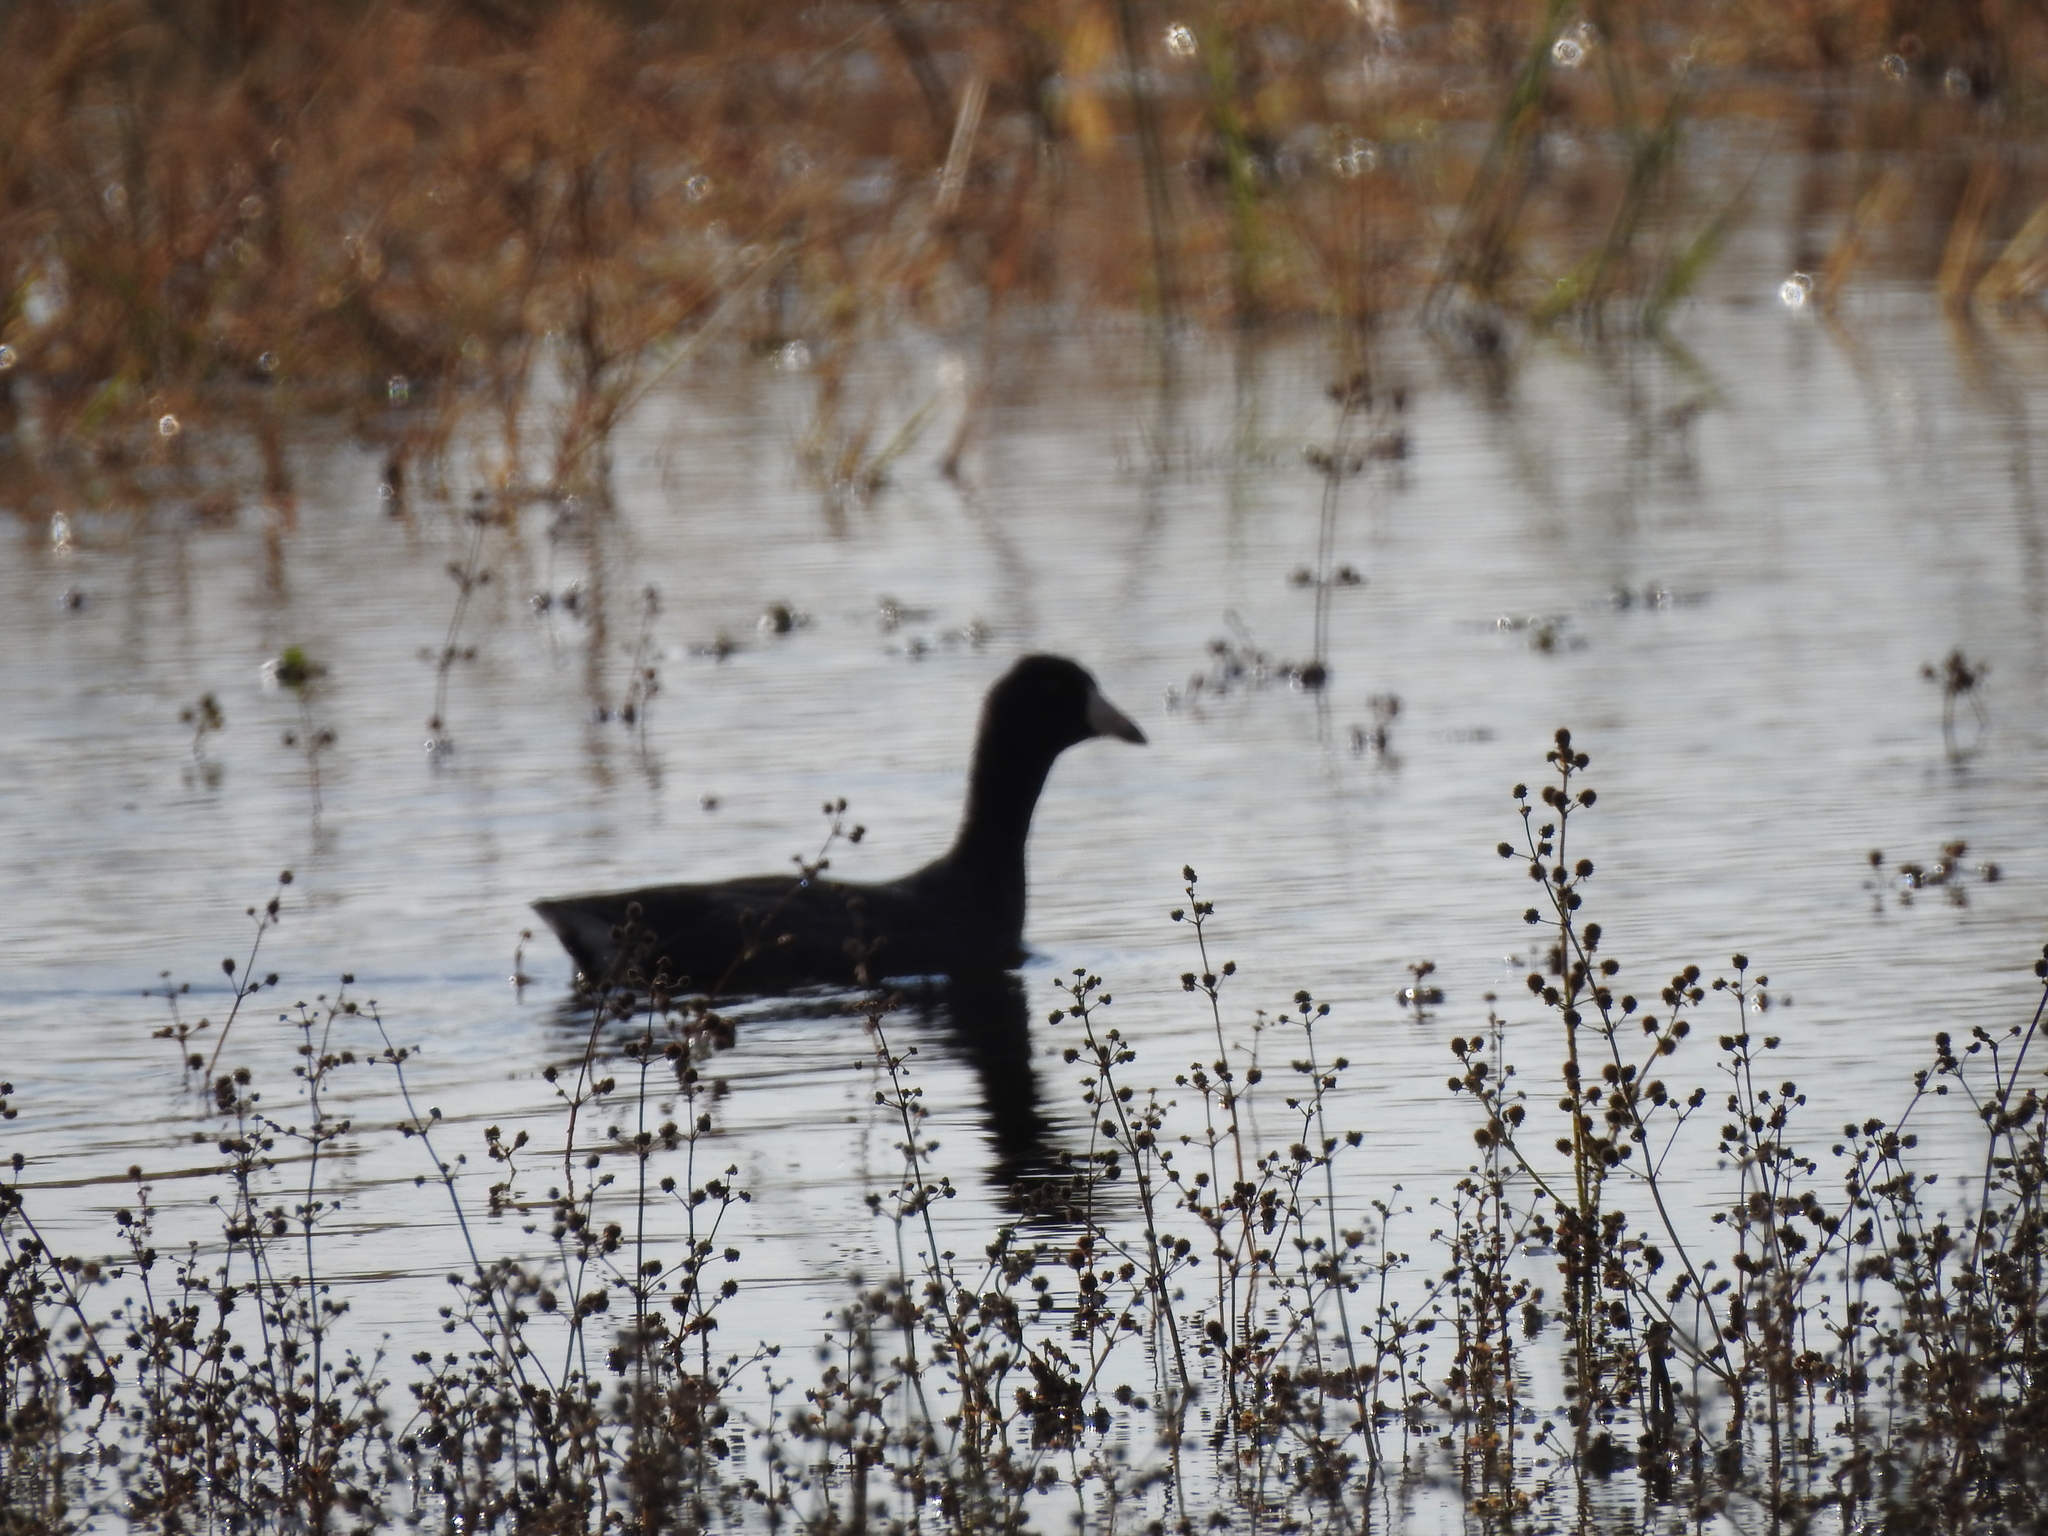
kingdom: Animalia
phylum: Chordata
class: Aves
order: Gruiformes
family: Rallidae
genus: Fulica
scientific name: Fulica americana
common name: American coot
